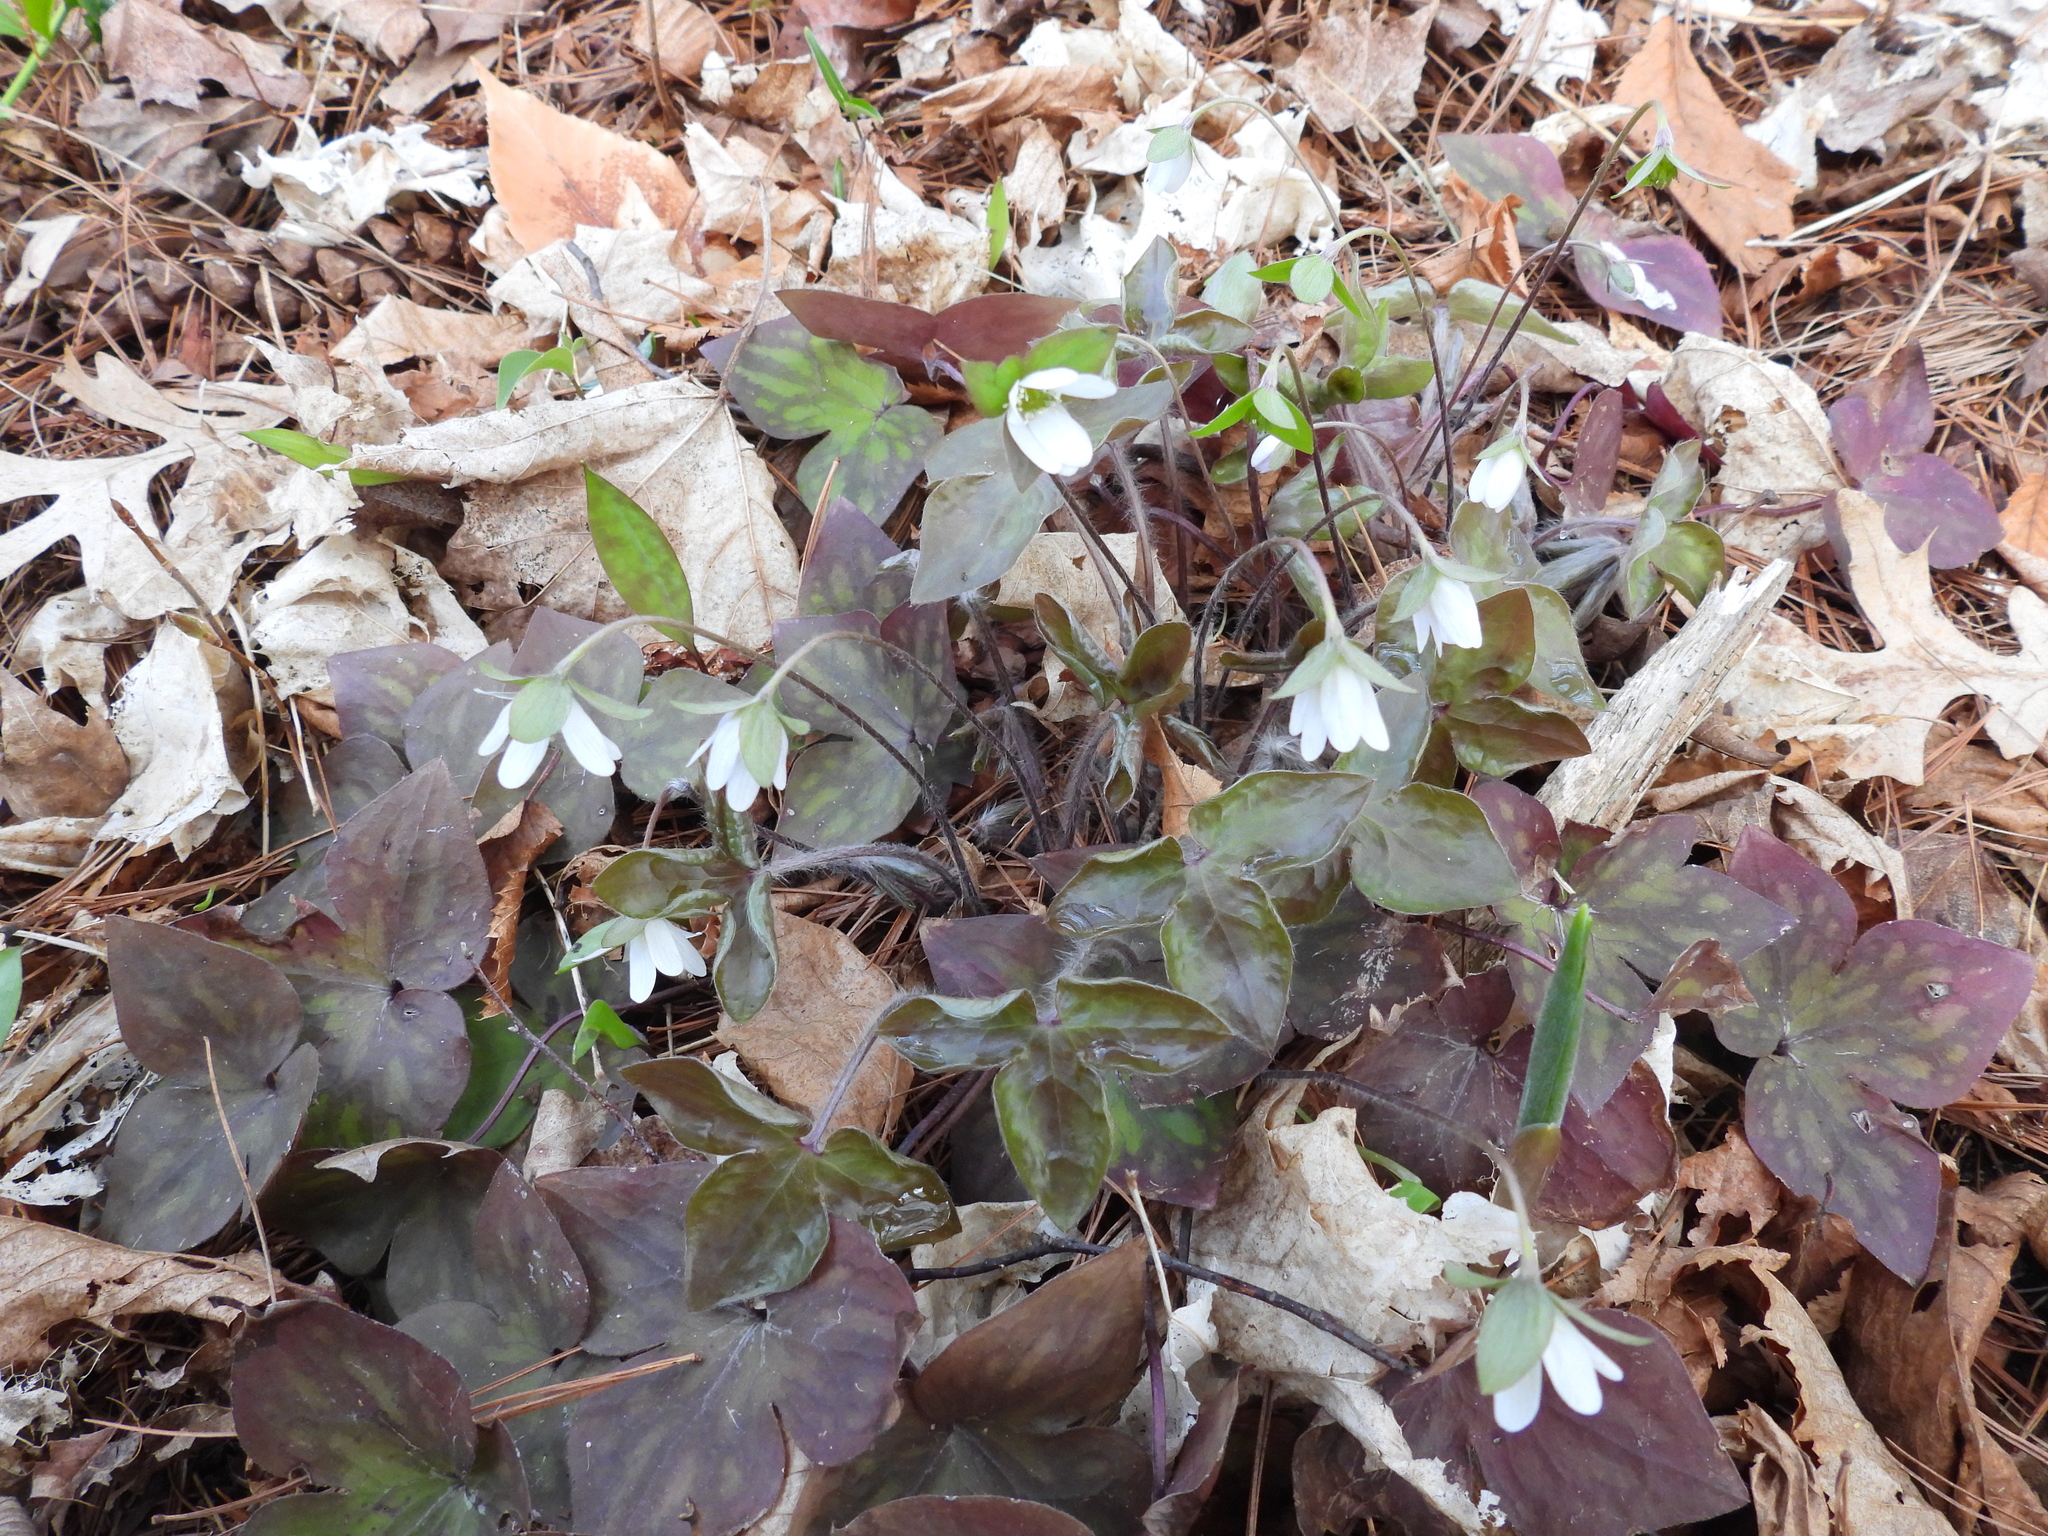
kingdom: Plantae
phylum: Tracheophyta
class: Magnoliopsida
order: Ranunculales
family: Ranunculaceae
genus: Hepatica
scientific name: Hepatica acutiloba
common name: Sharp-lobed hepatica
